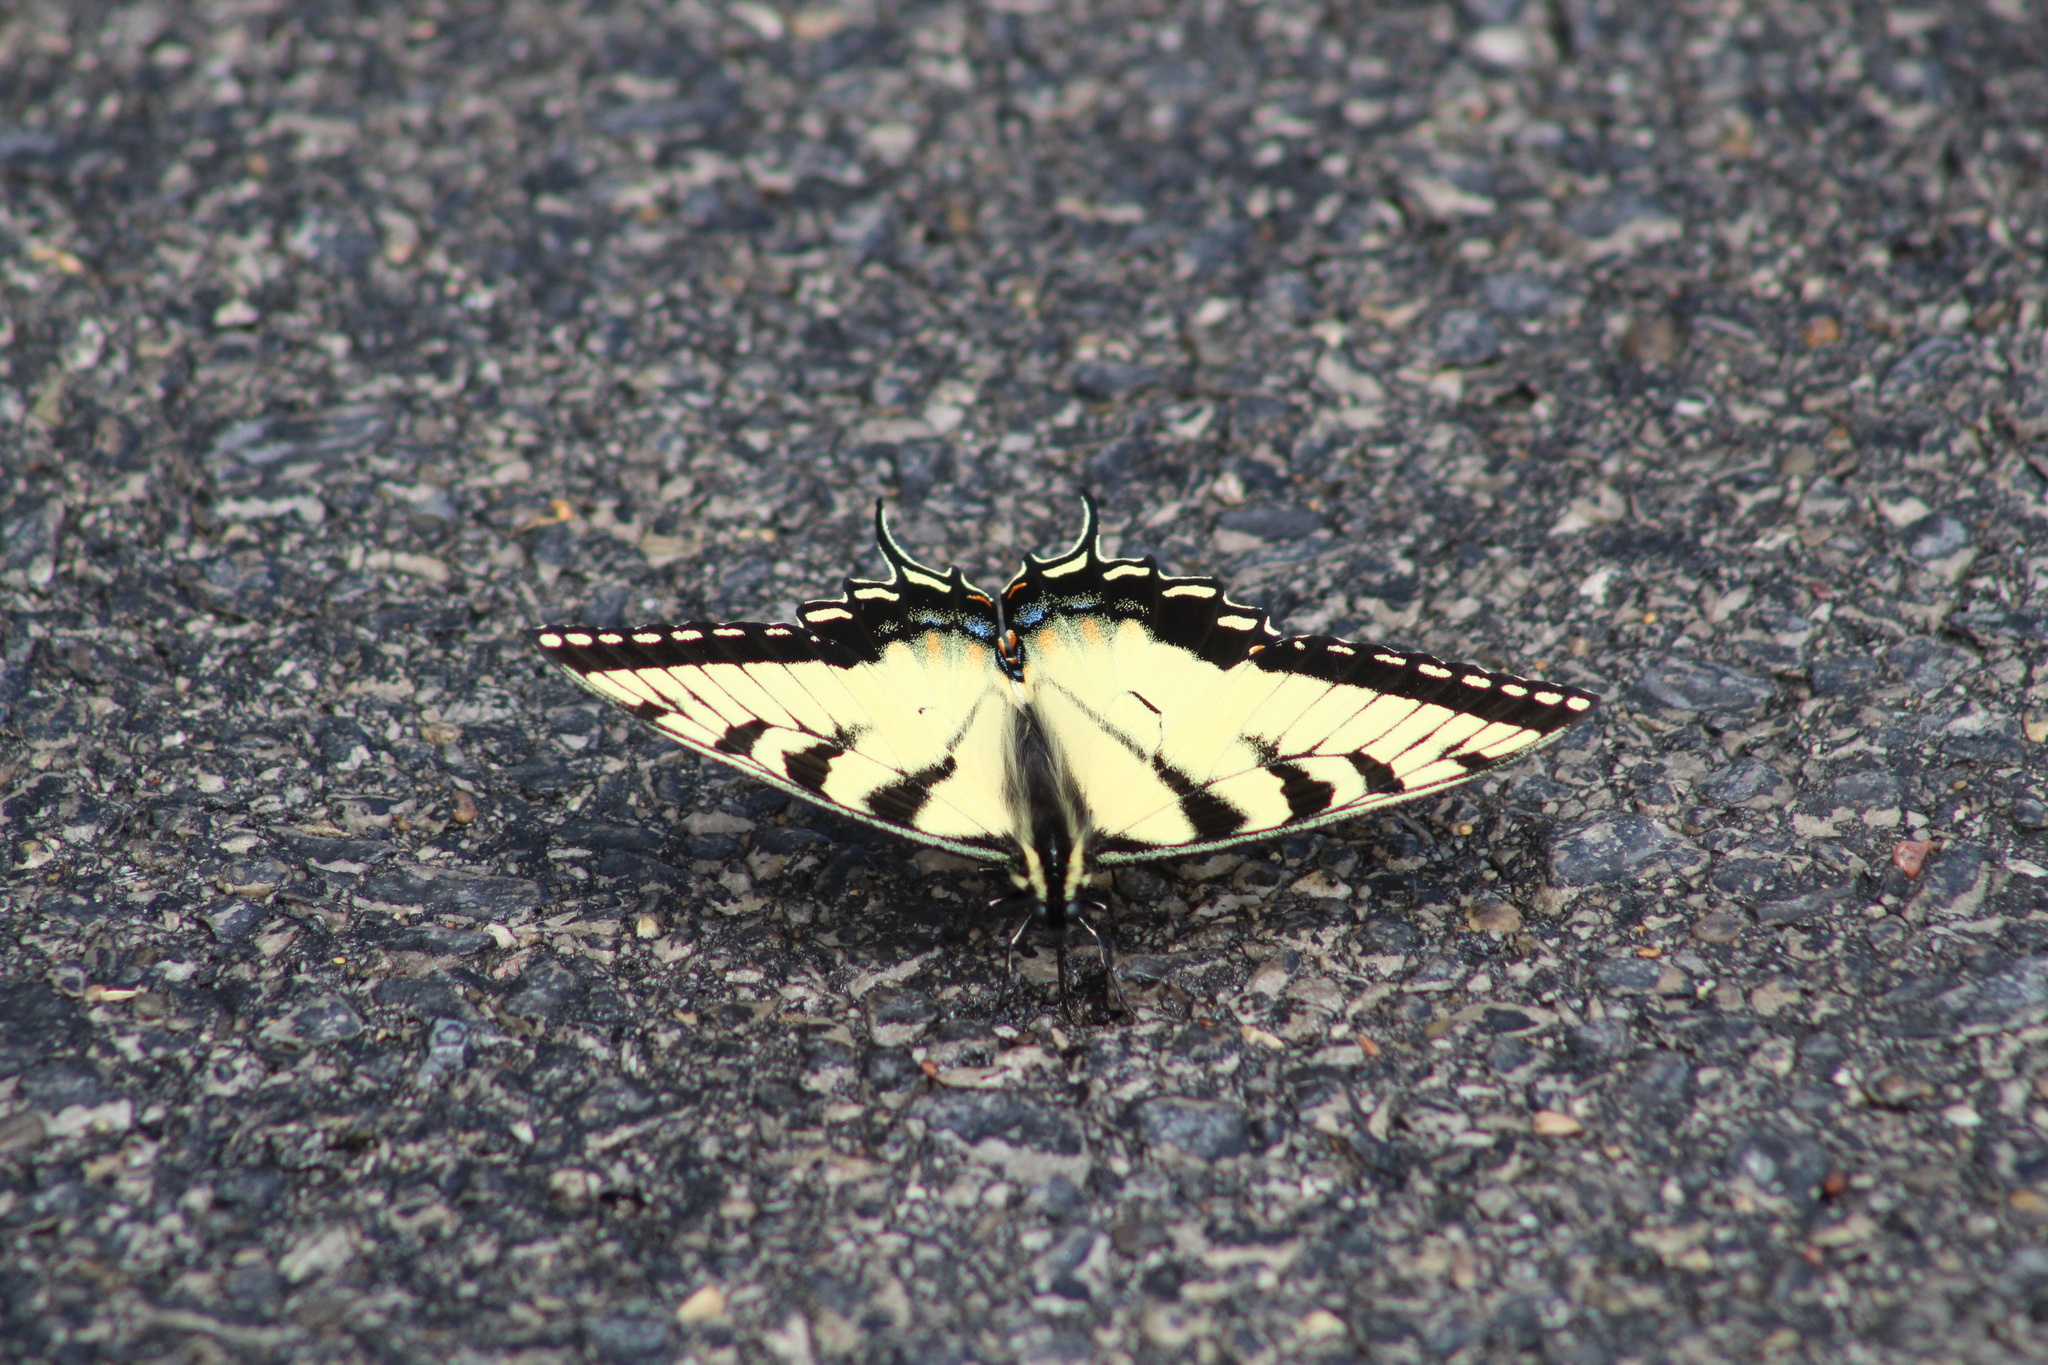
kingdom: Animalia
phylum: Arthropoda
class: Insecta
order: Lepidoptera
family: Papilionidae
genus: Papilio
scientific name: Papilio glaucus
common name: Tiger swallowtail
